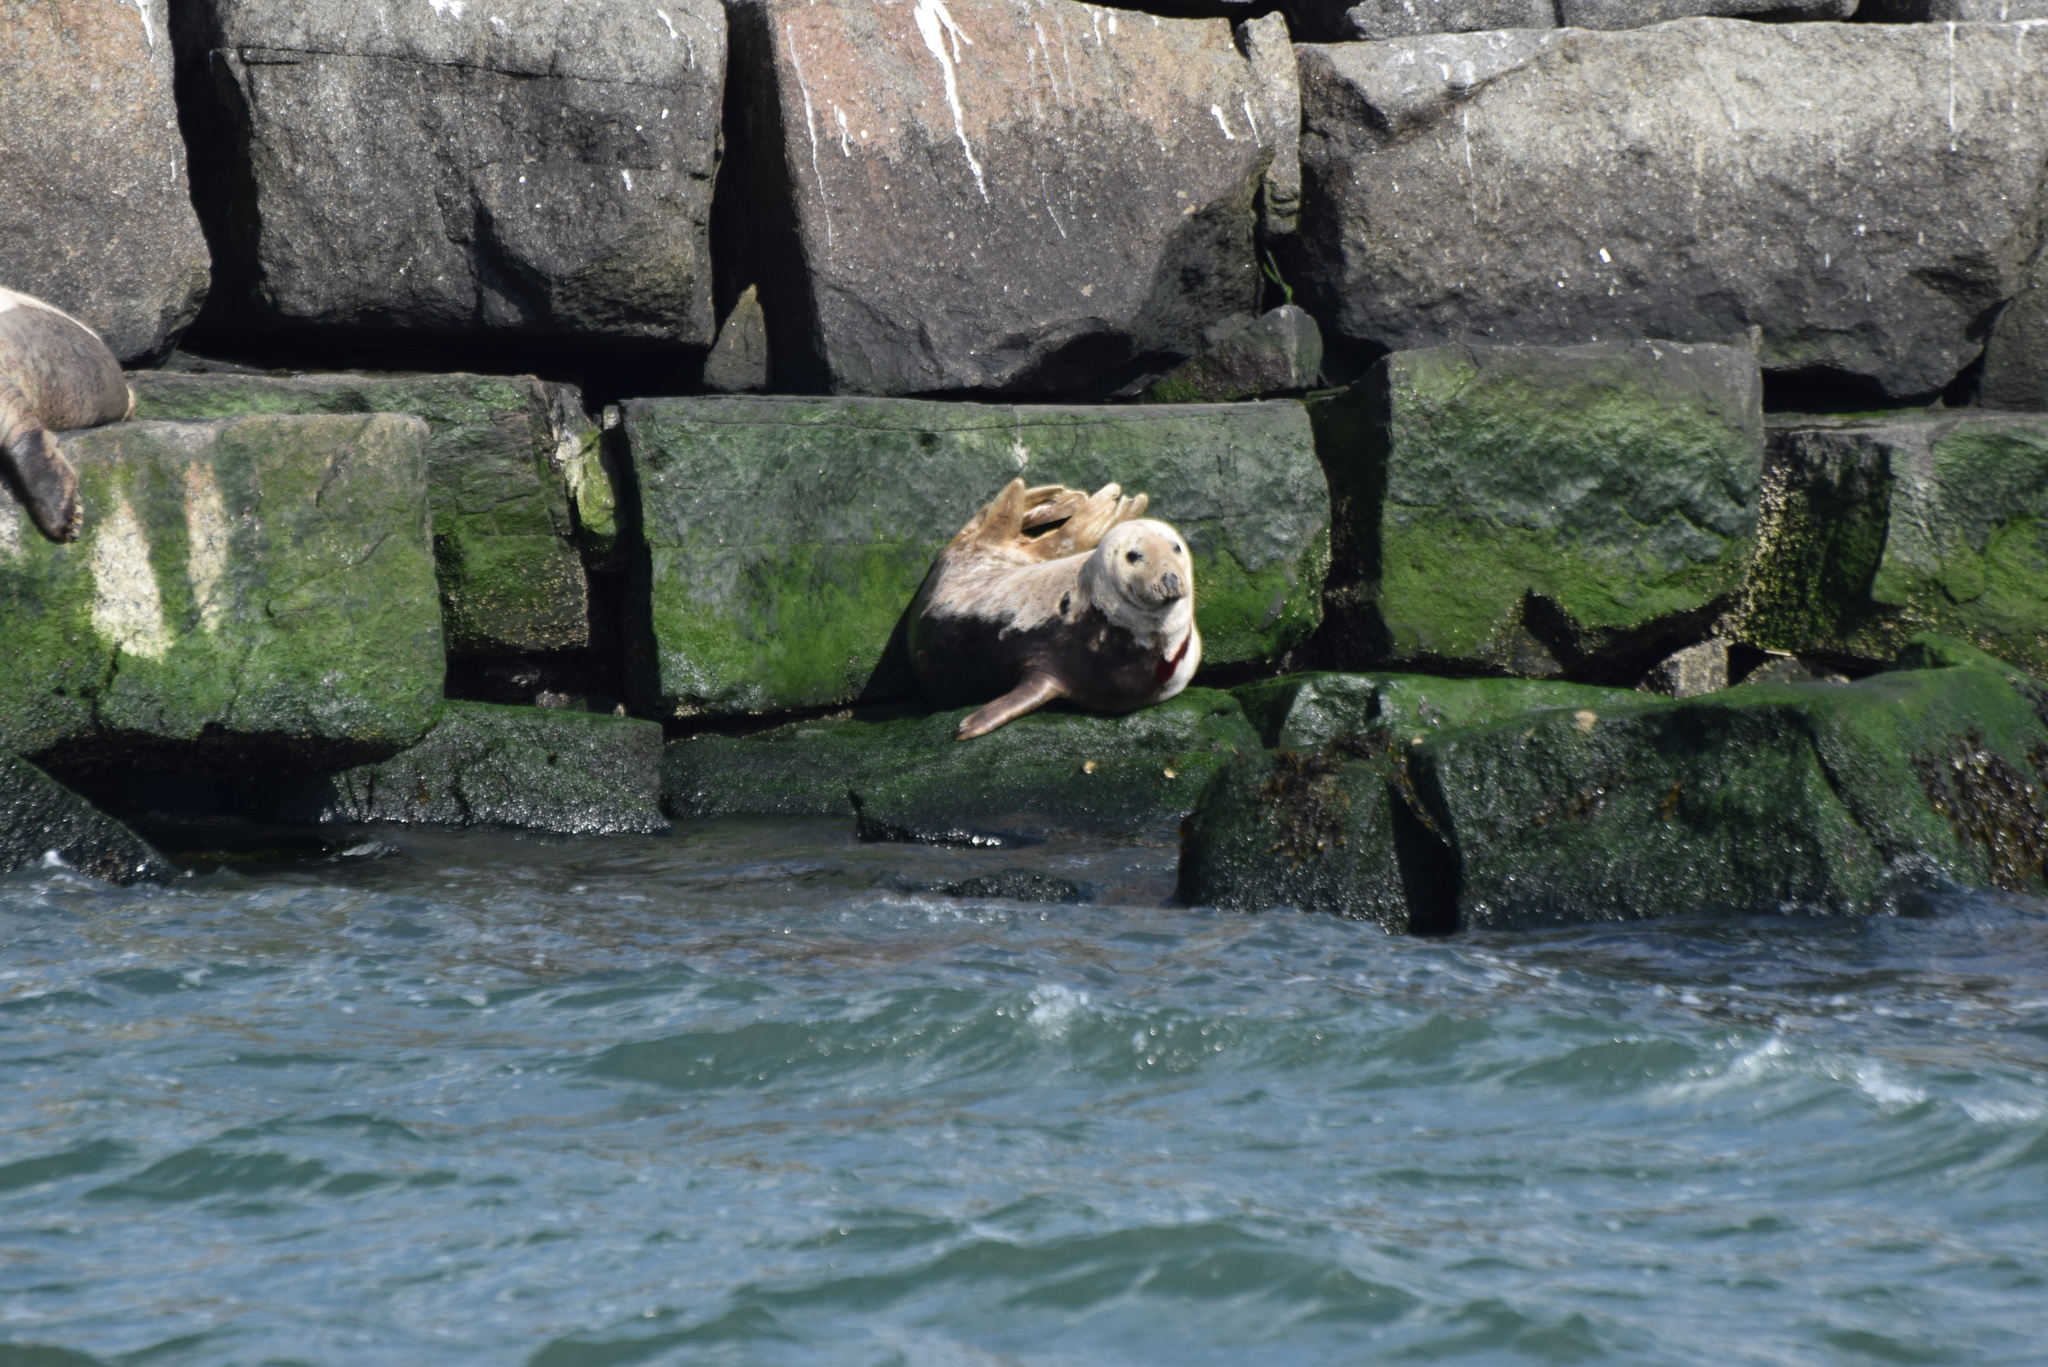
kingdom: Animalia
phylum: Chordata
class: Mammalia
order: Carnivora
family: Phocidae
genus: Halichoerus
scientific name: Halichoerus grypus
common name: Grey seal
